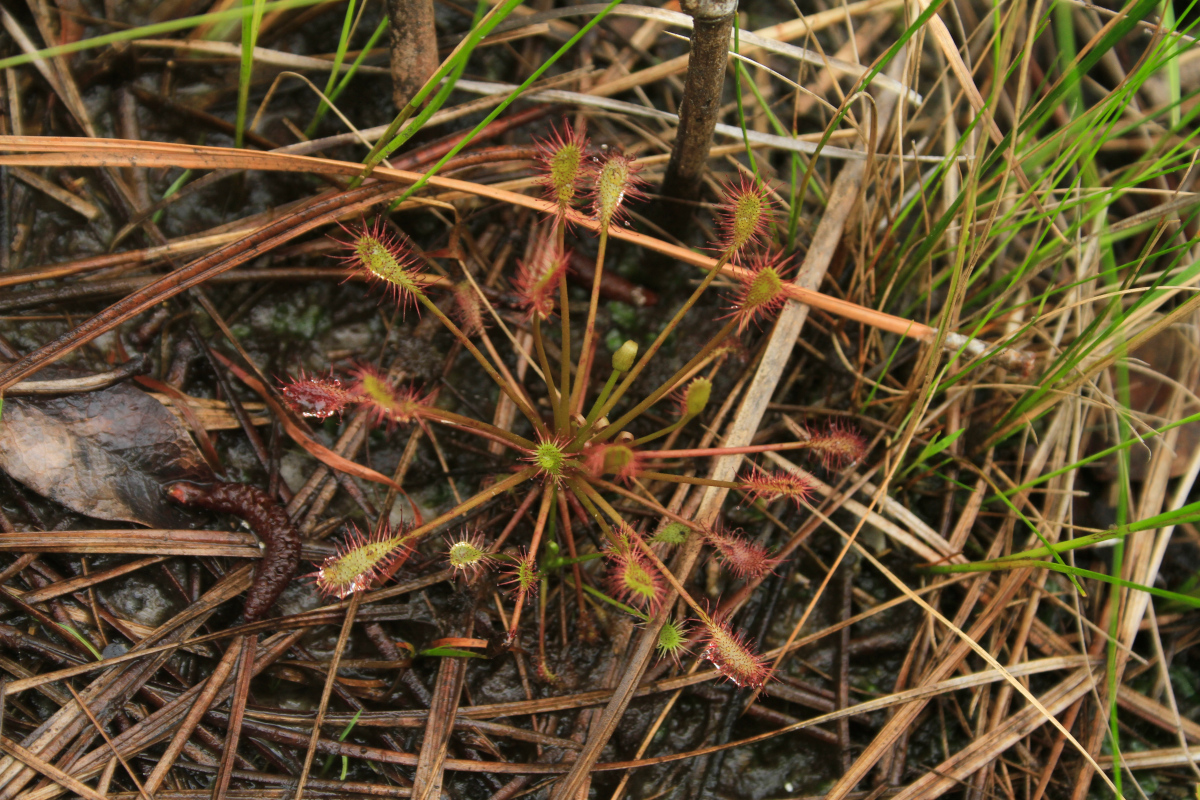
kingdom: Plantae
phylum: Tracheophyta
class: Magnoliopsida
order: Caryophyllales
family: Droseraceae
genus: Drosera
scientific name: Drosera intermedia
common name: Oblong-leaved sundew
